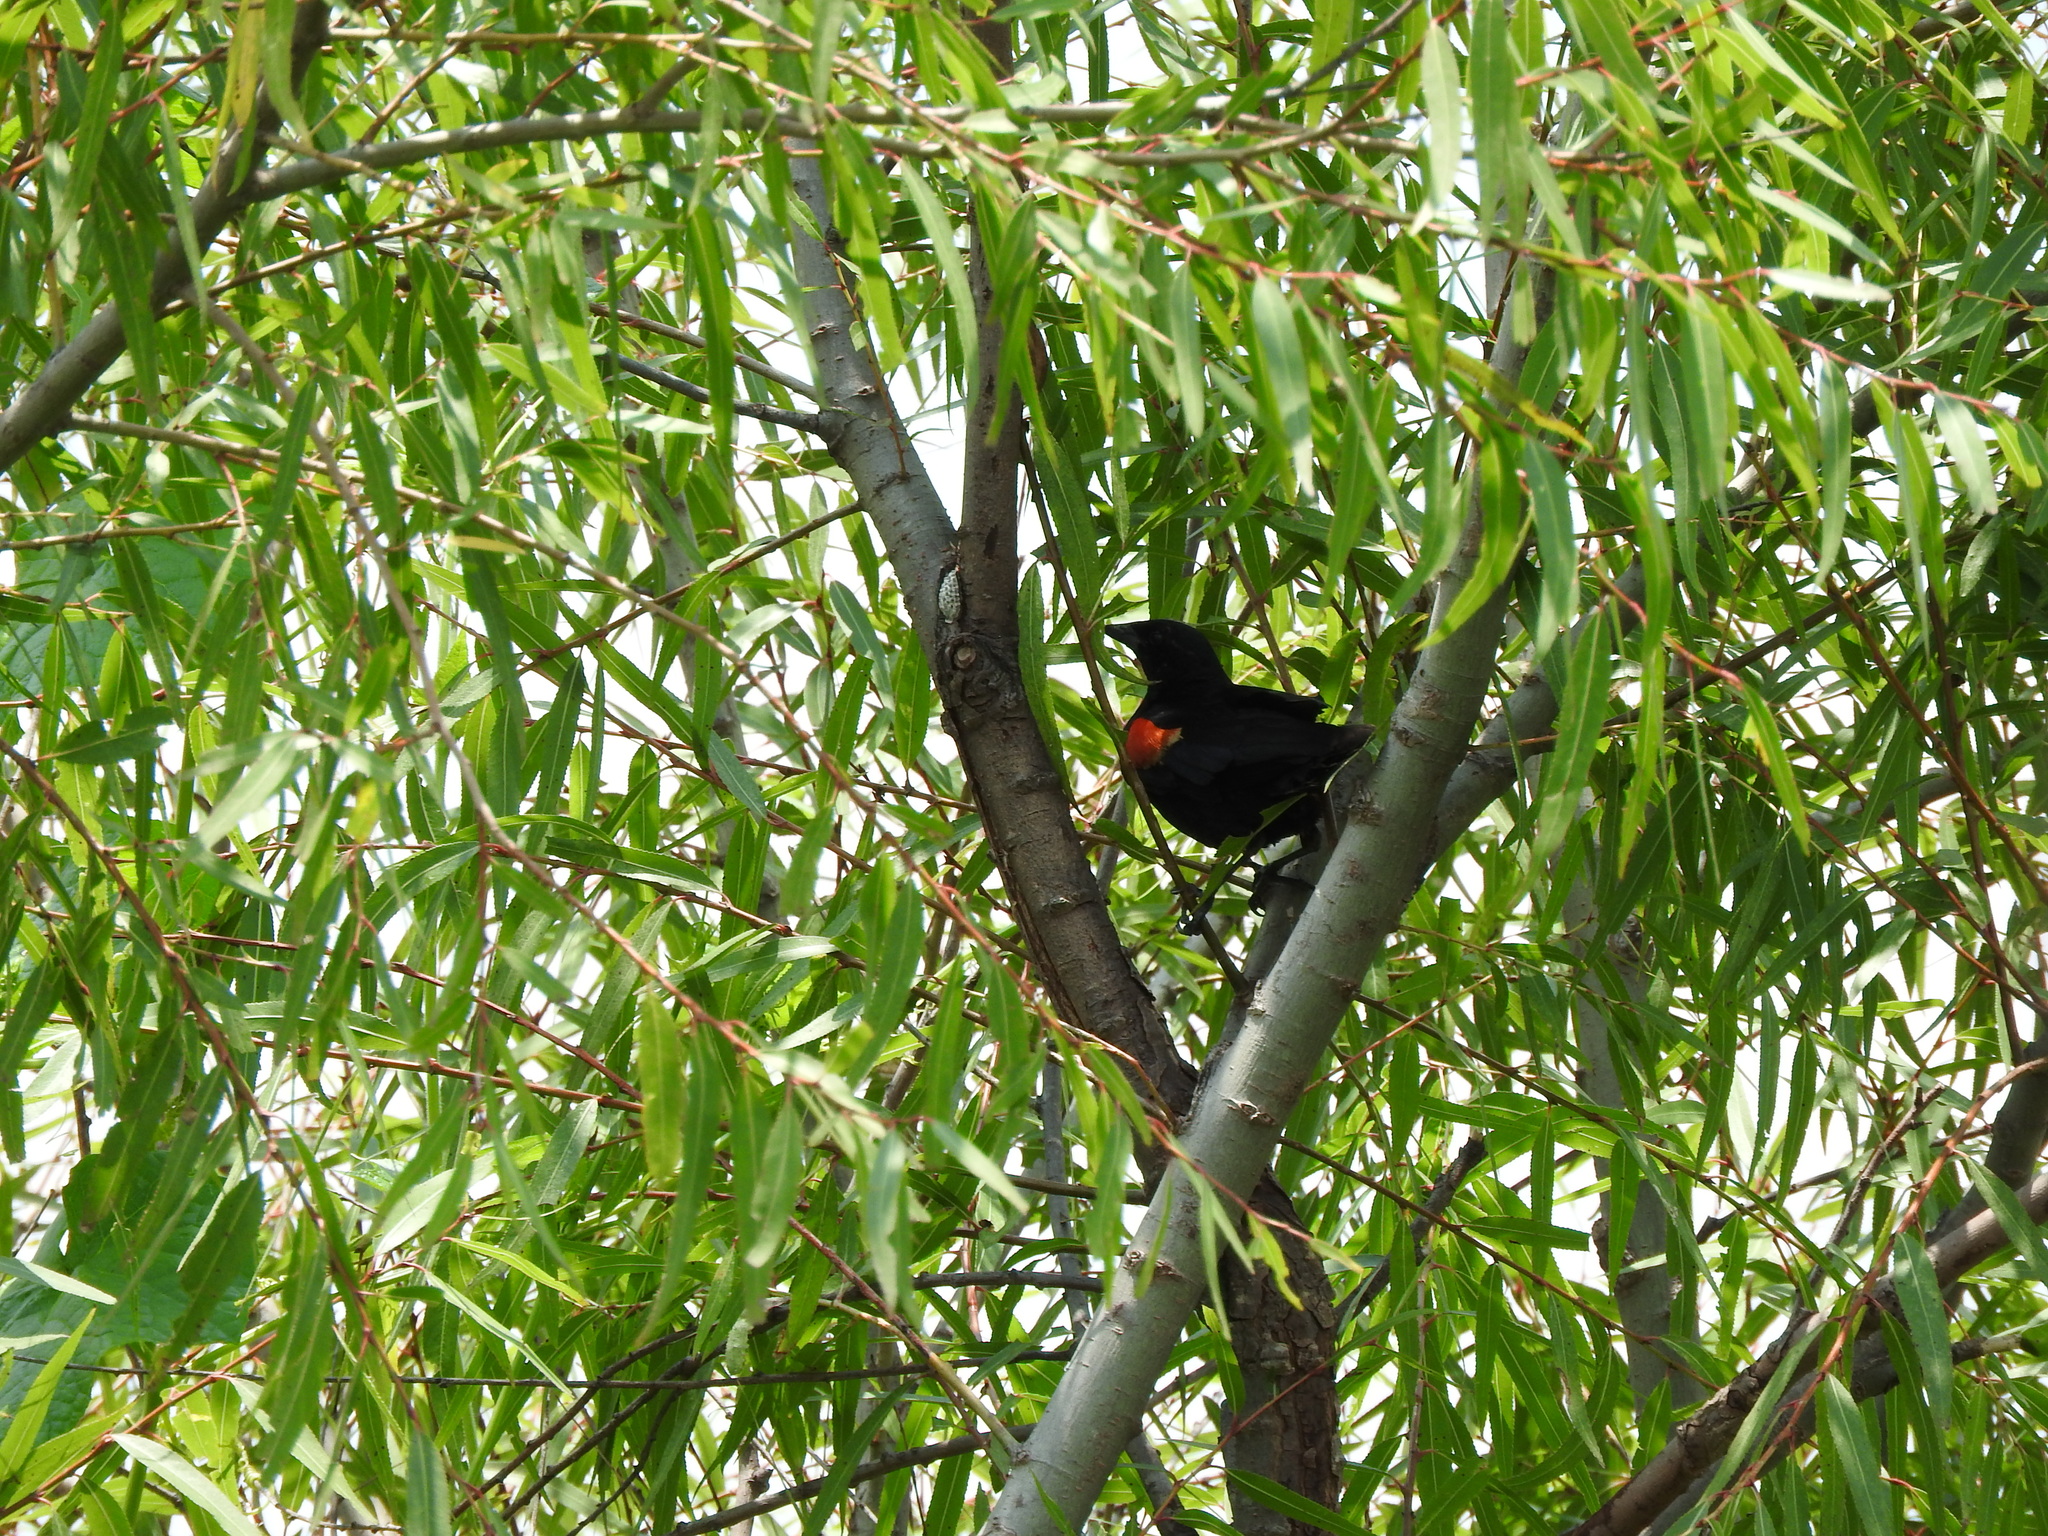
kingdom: Animalia
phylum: Chordata
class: Aves
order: Passeriformes
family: Icteridae
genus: Agelaius
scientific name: Agelaius phoeniceus
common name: Red-winged blackbird
